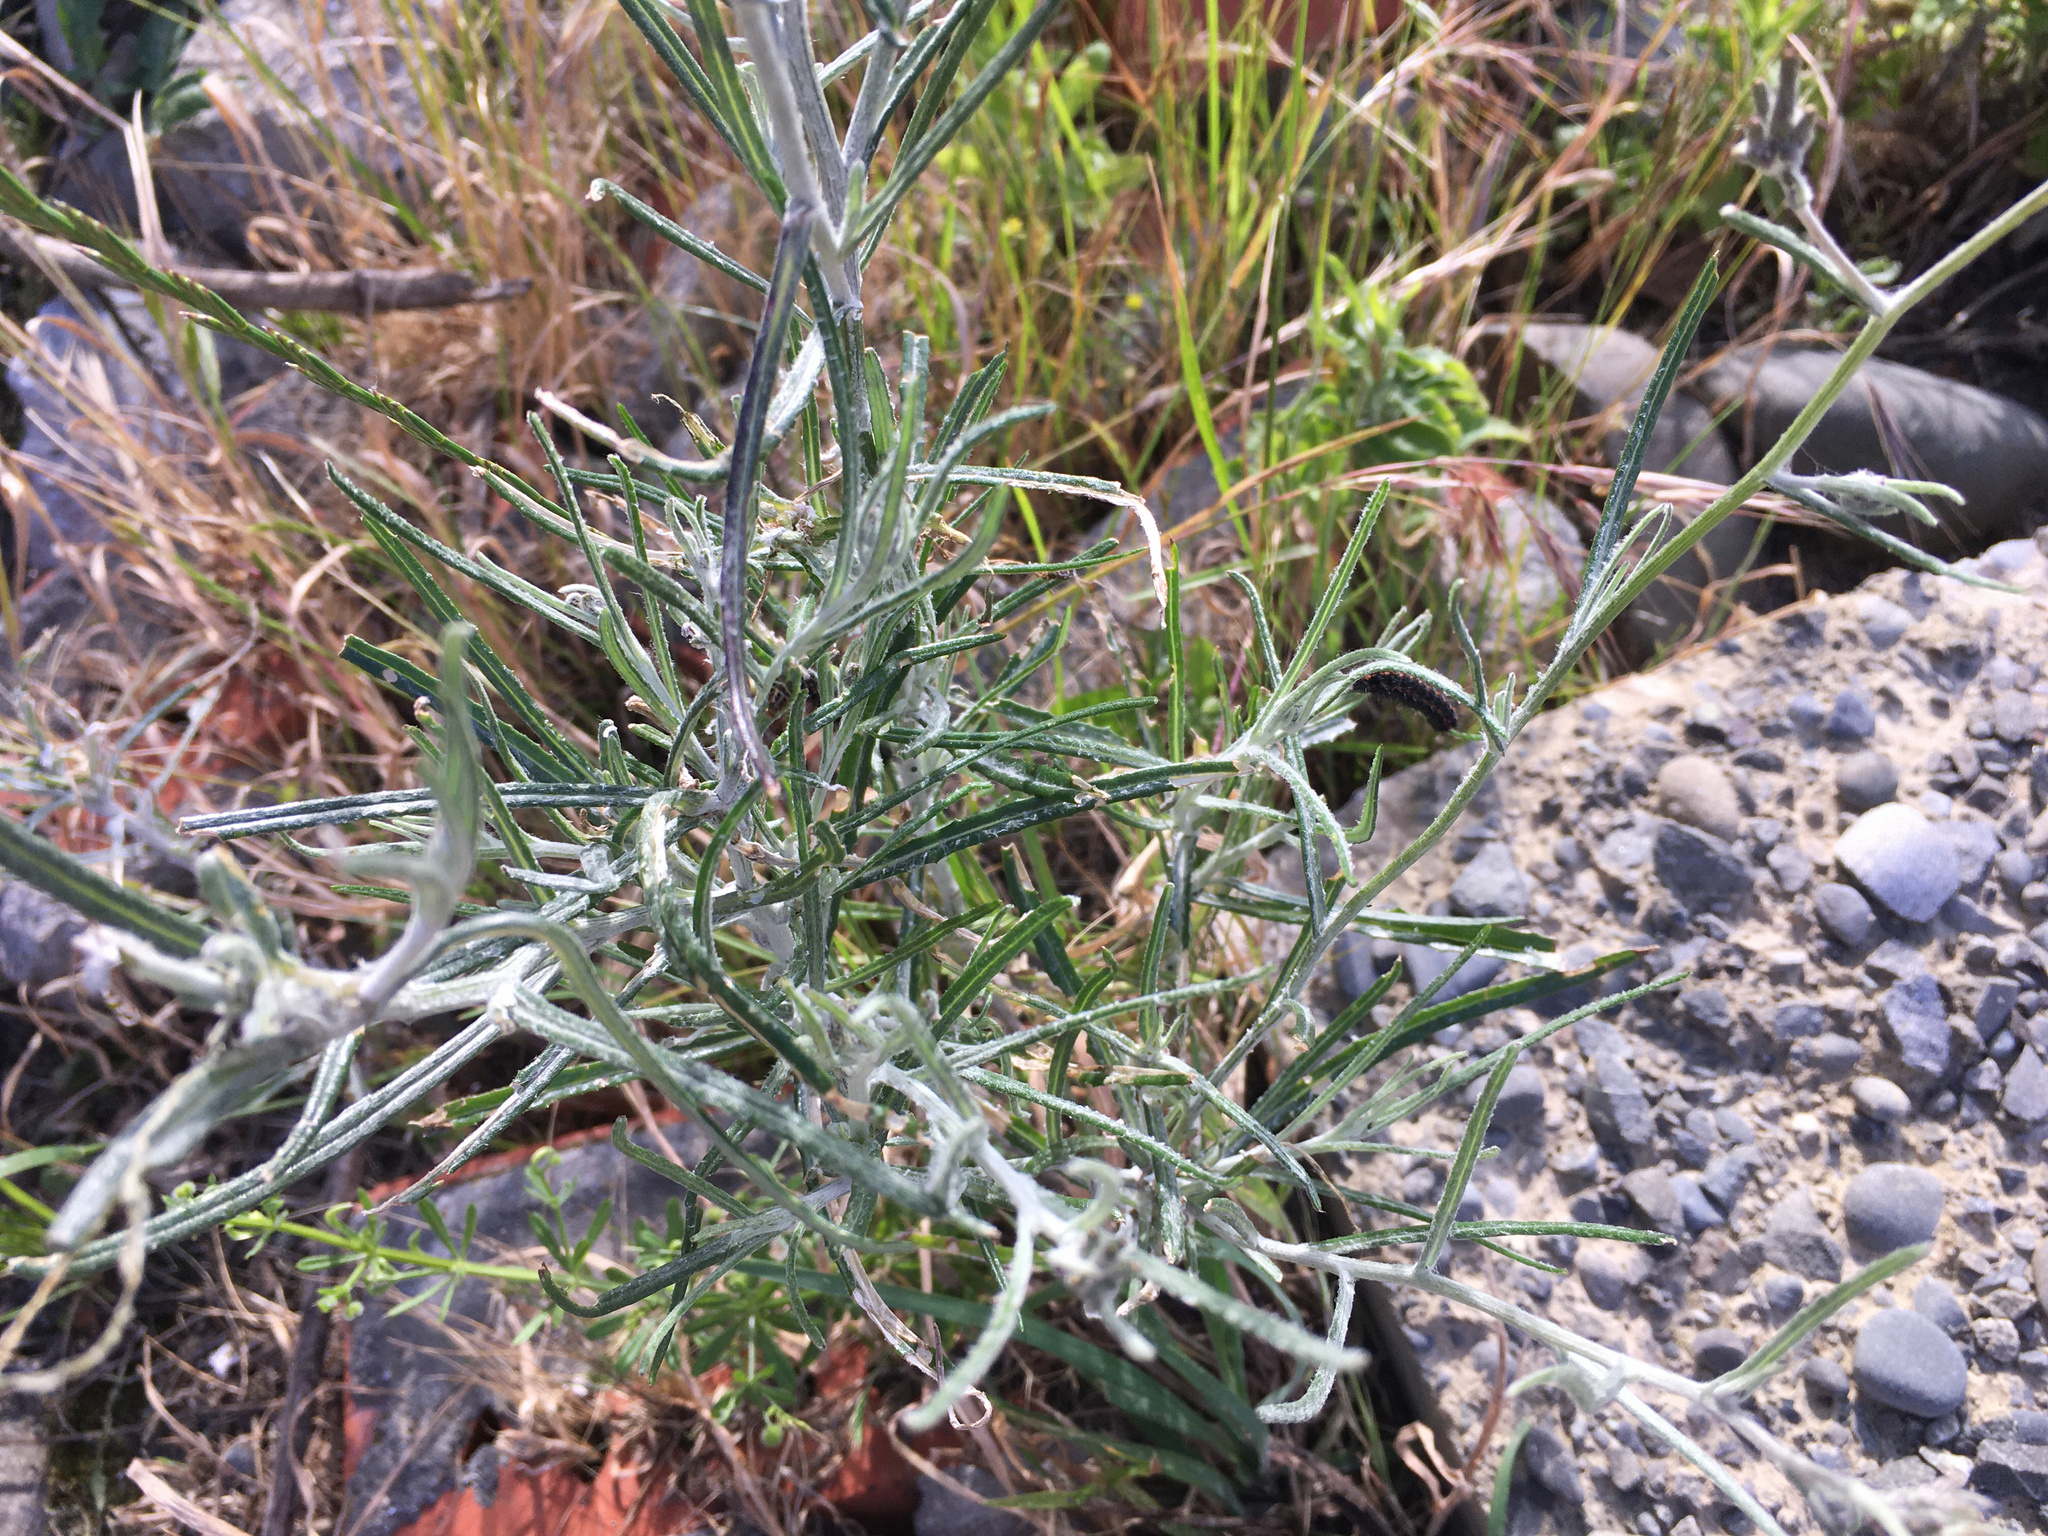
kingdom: Plantae
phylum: Tracheophyta
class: Magnoliopsida
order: Asterales
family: Asteraceae
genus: Senecio
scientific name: Senecio quadridentatus
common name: Cotton fireweed
